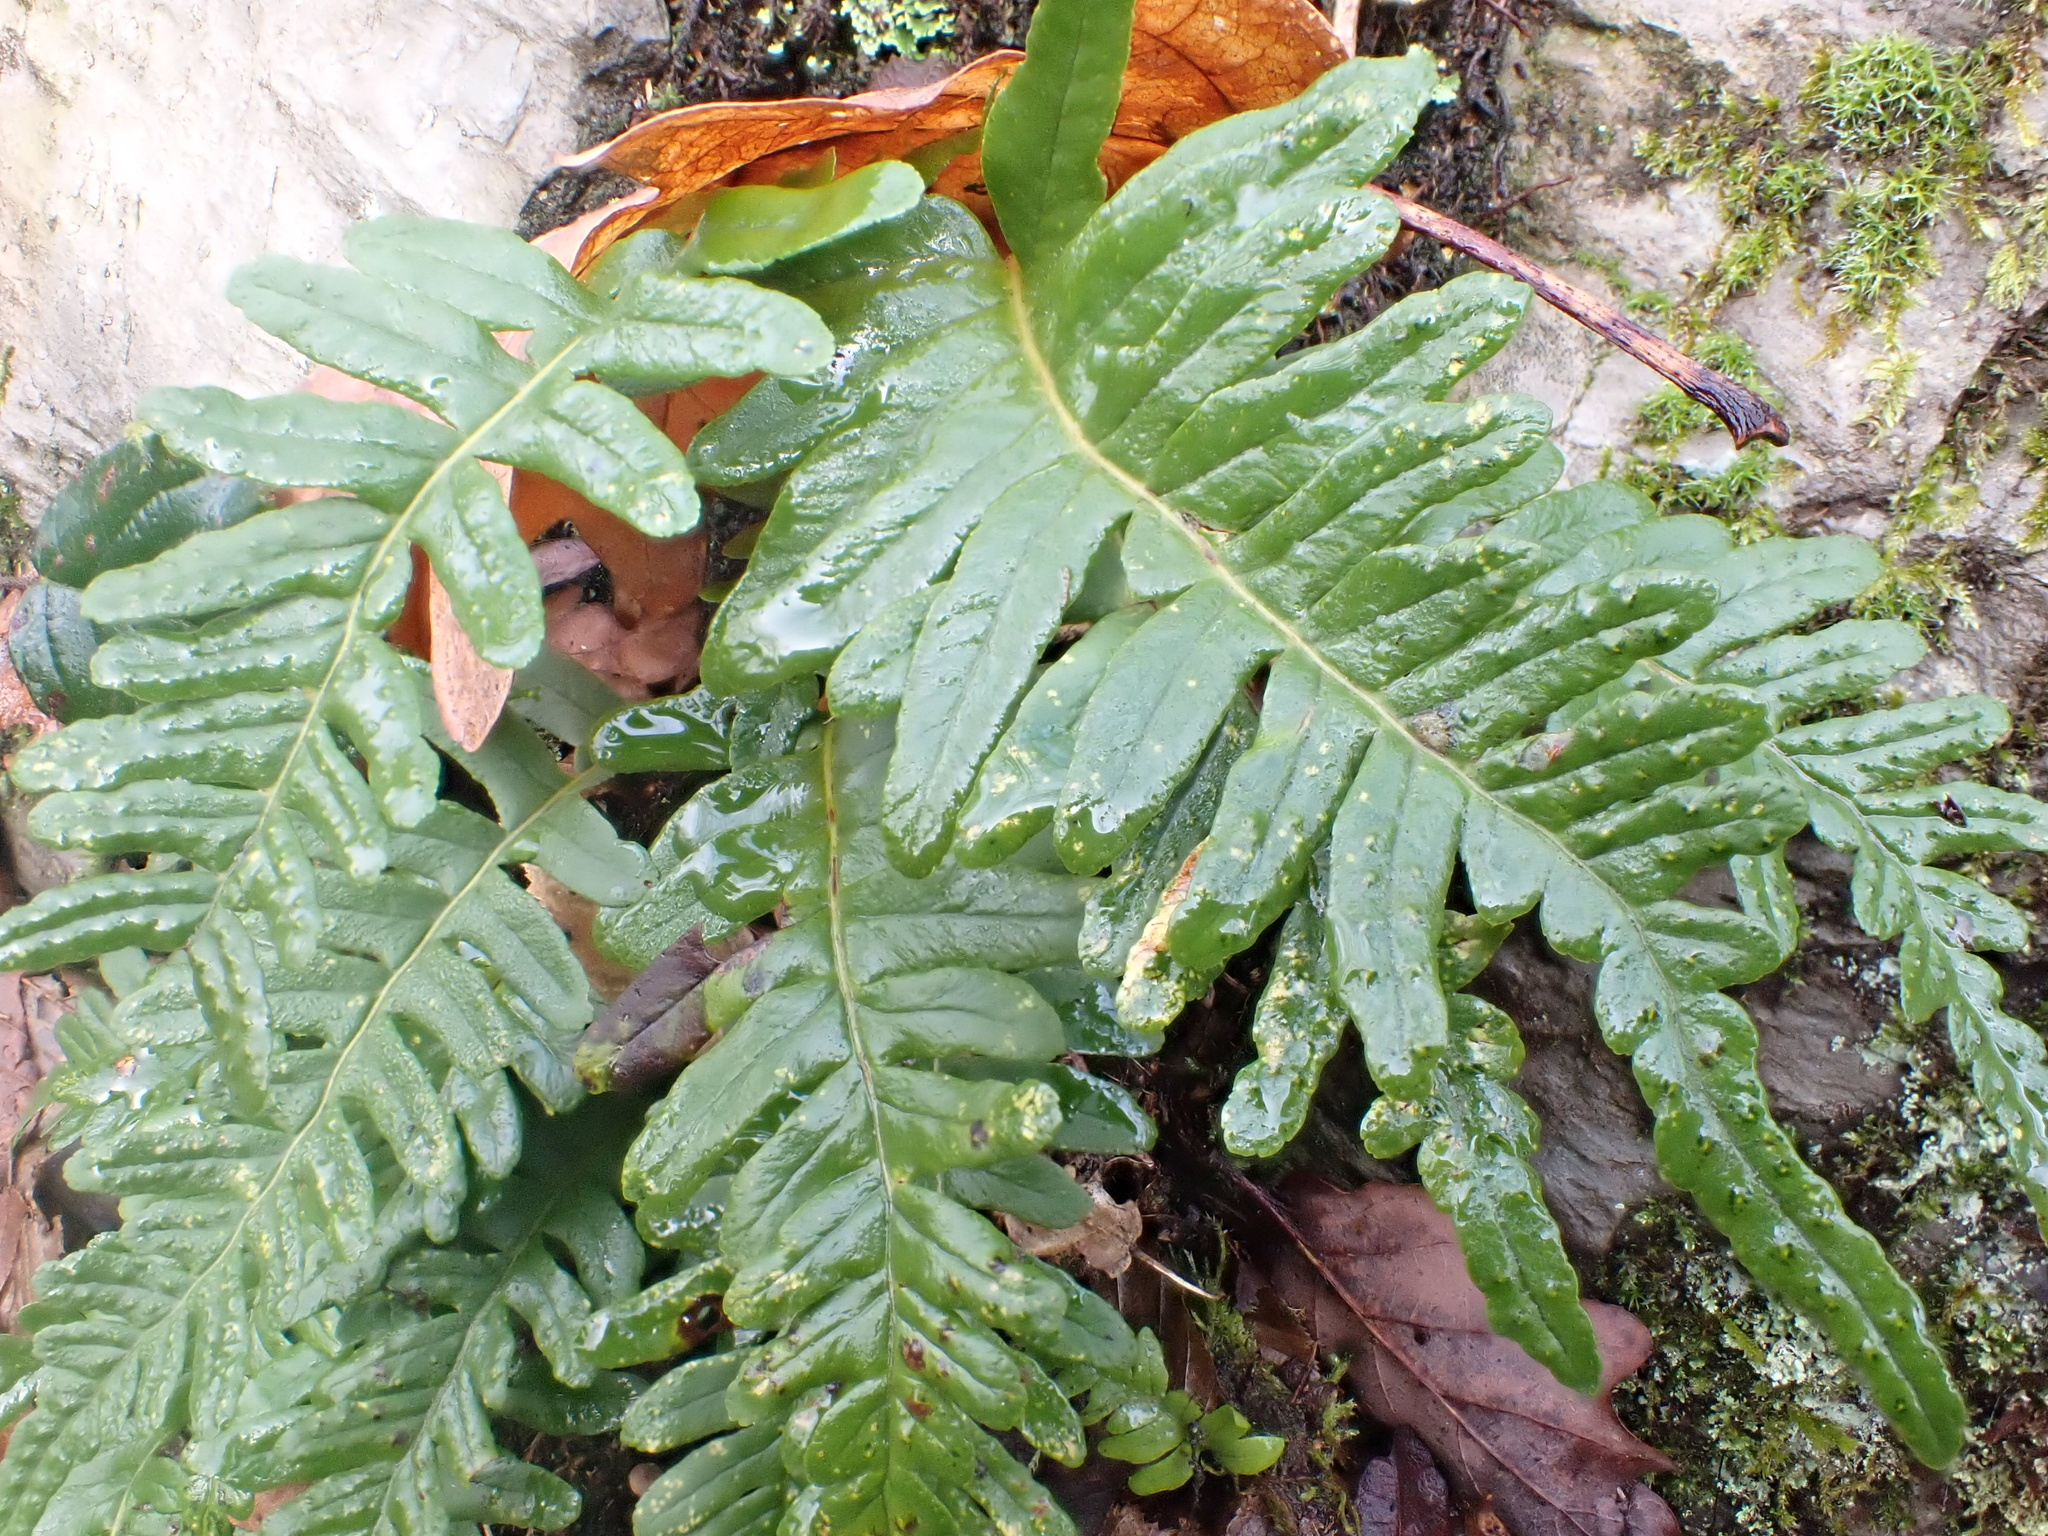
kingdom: Plantae
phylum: Tracheophyta
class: Polypodiopsida
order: Polypodiales
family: Polypodiaceae
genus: Polypodium
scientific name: Polypodium vulgare
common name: Common polypody
